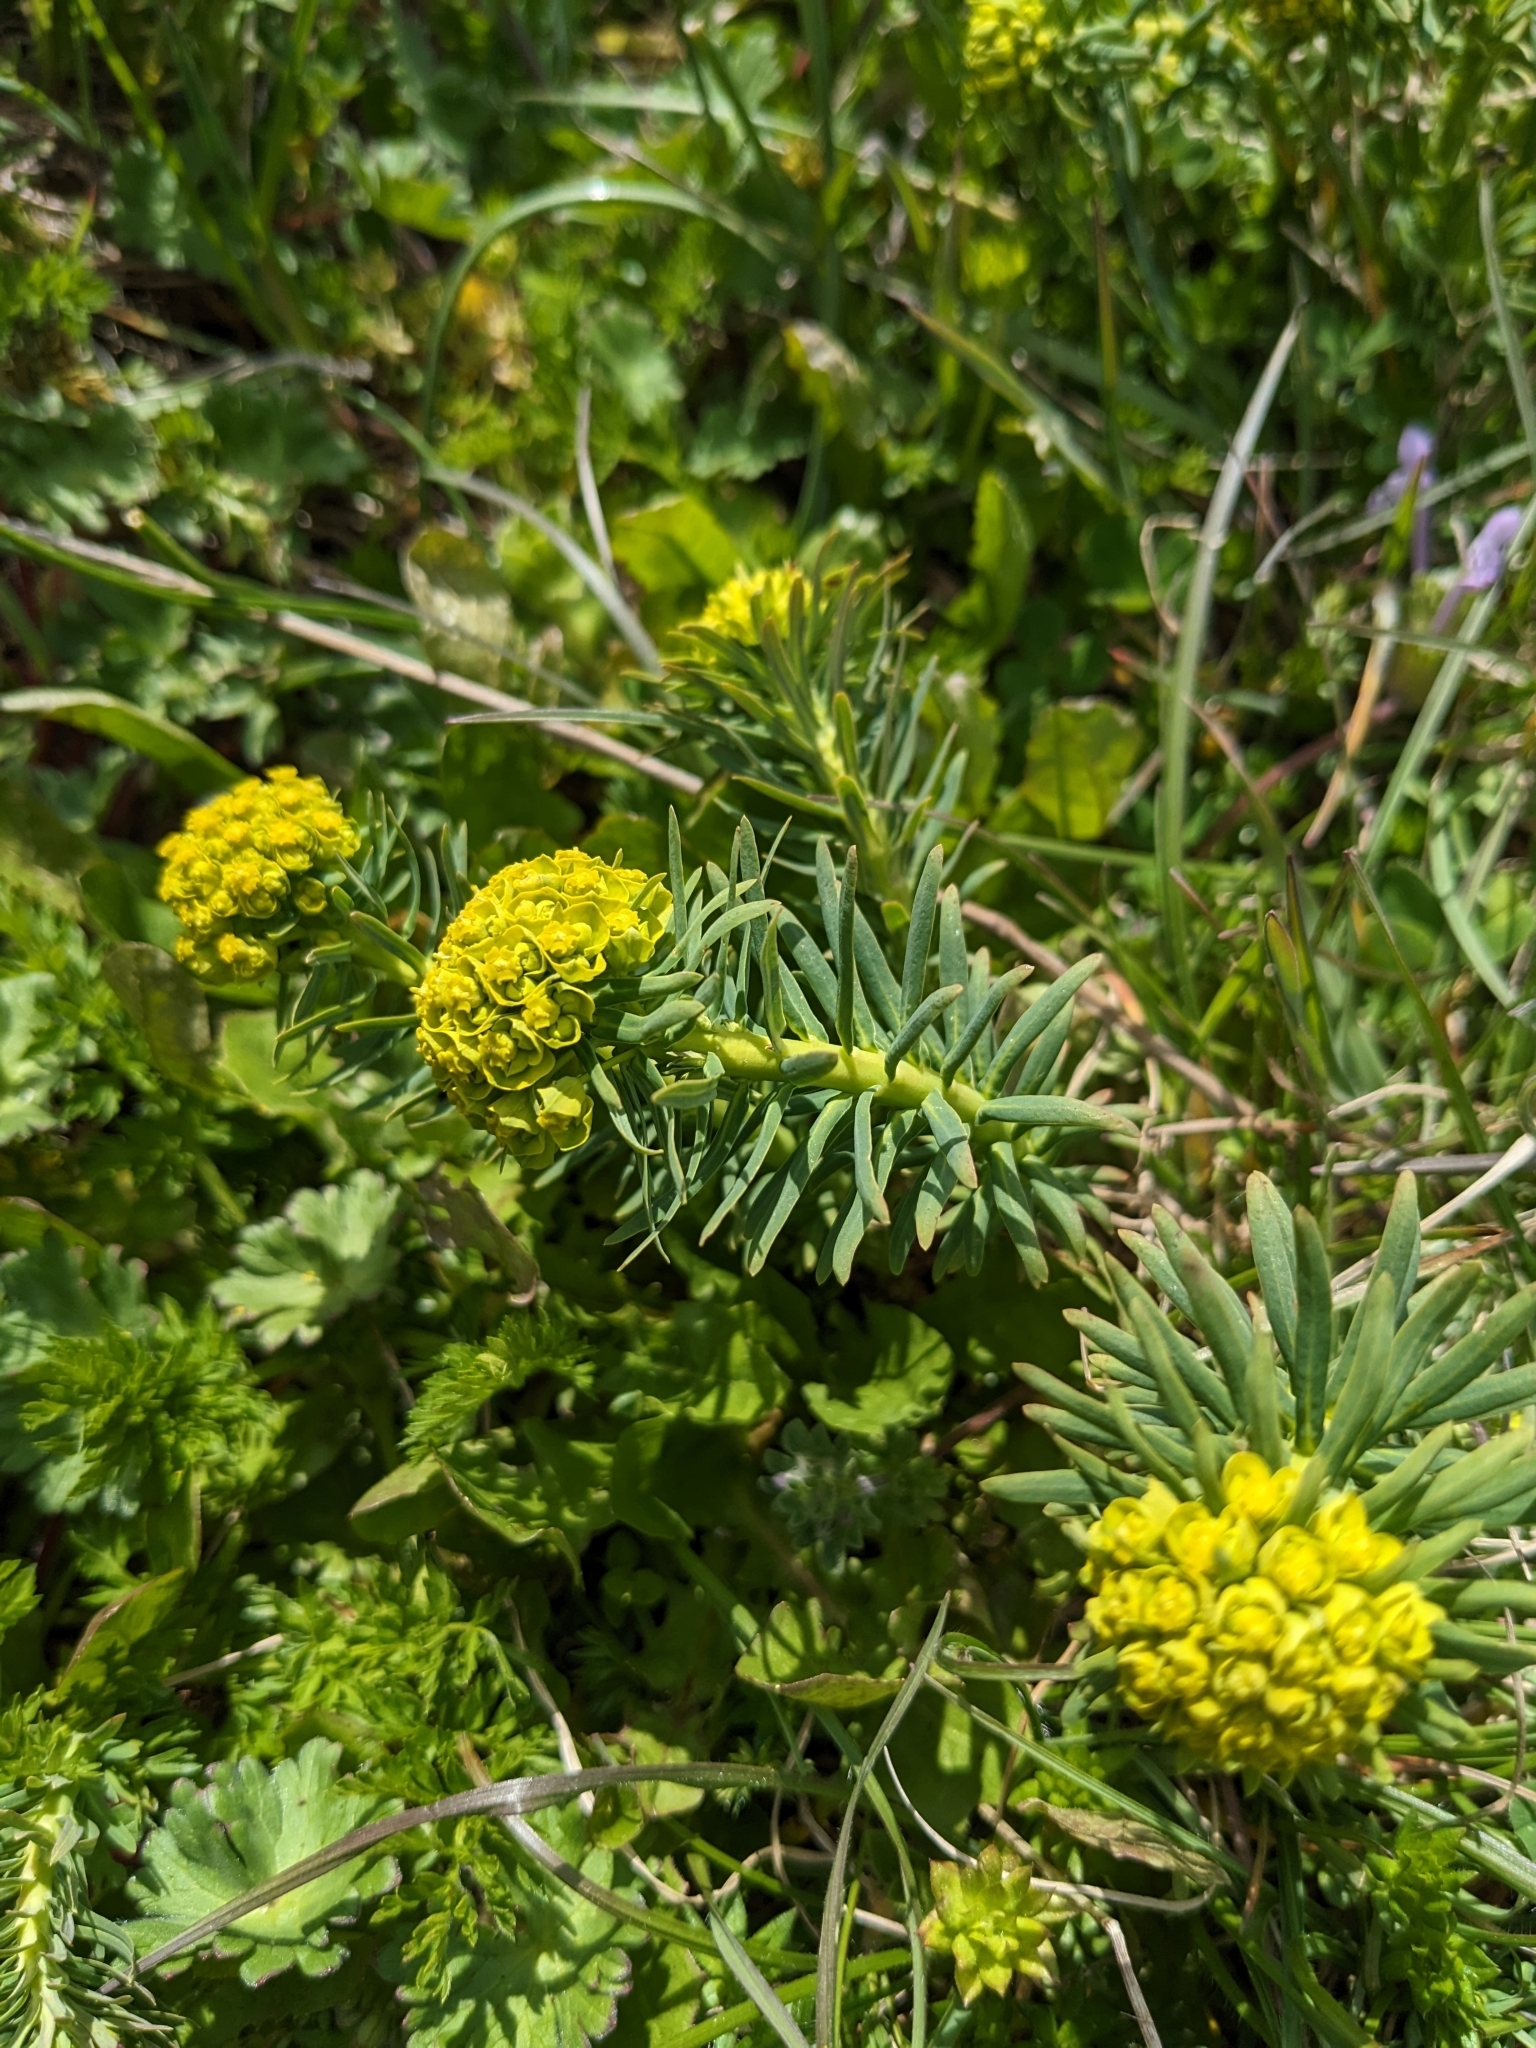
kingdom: Plantae
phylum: Tracheophyta
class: Magnoliopsida
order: Malpighiales
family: Euphorbiaceae
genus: Euphorbia
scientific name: Euphorbia cyparissias
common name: Cypress spurge
